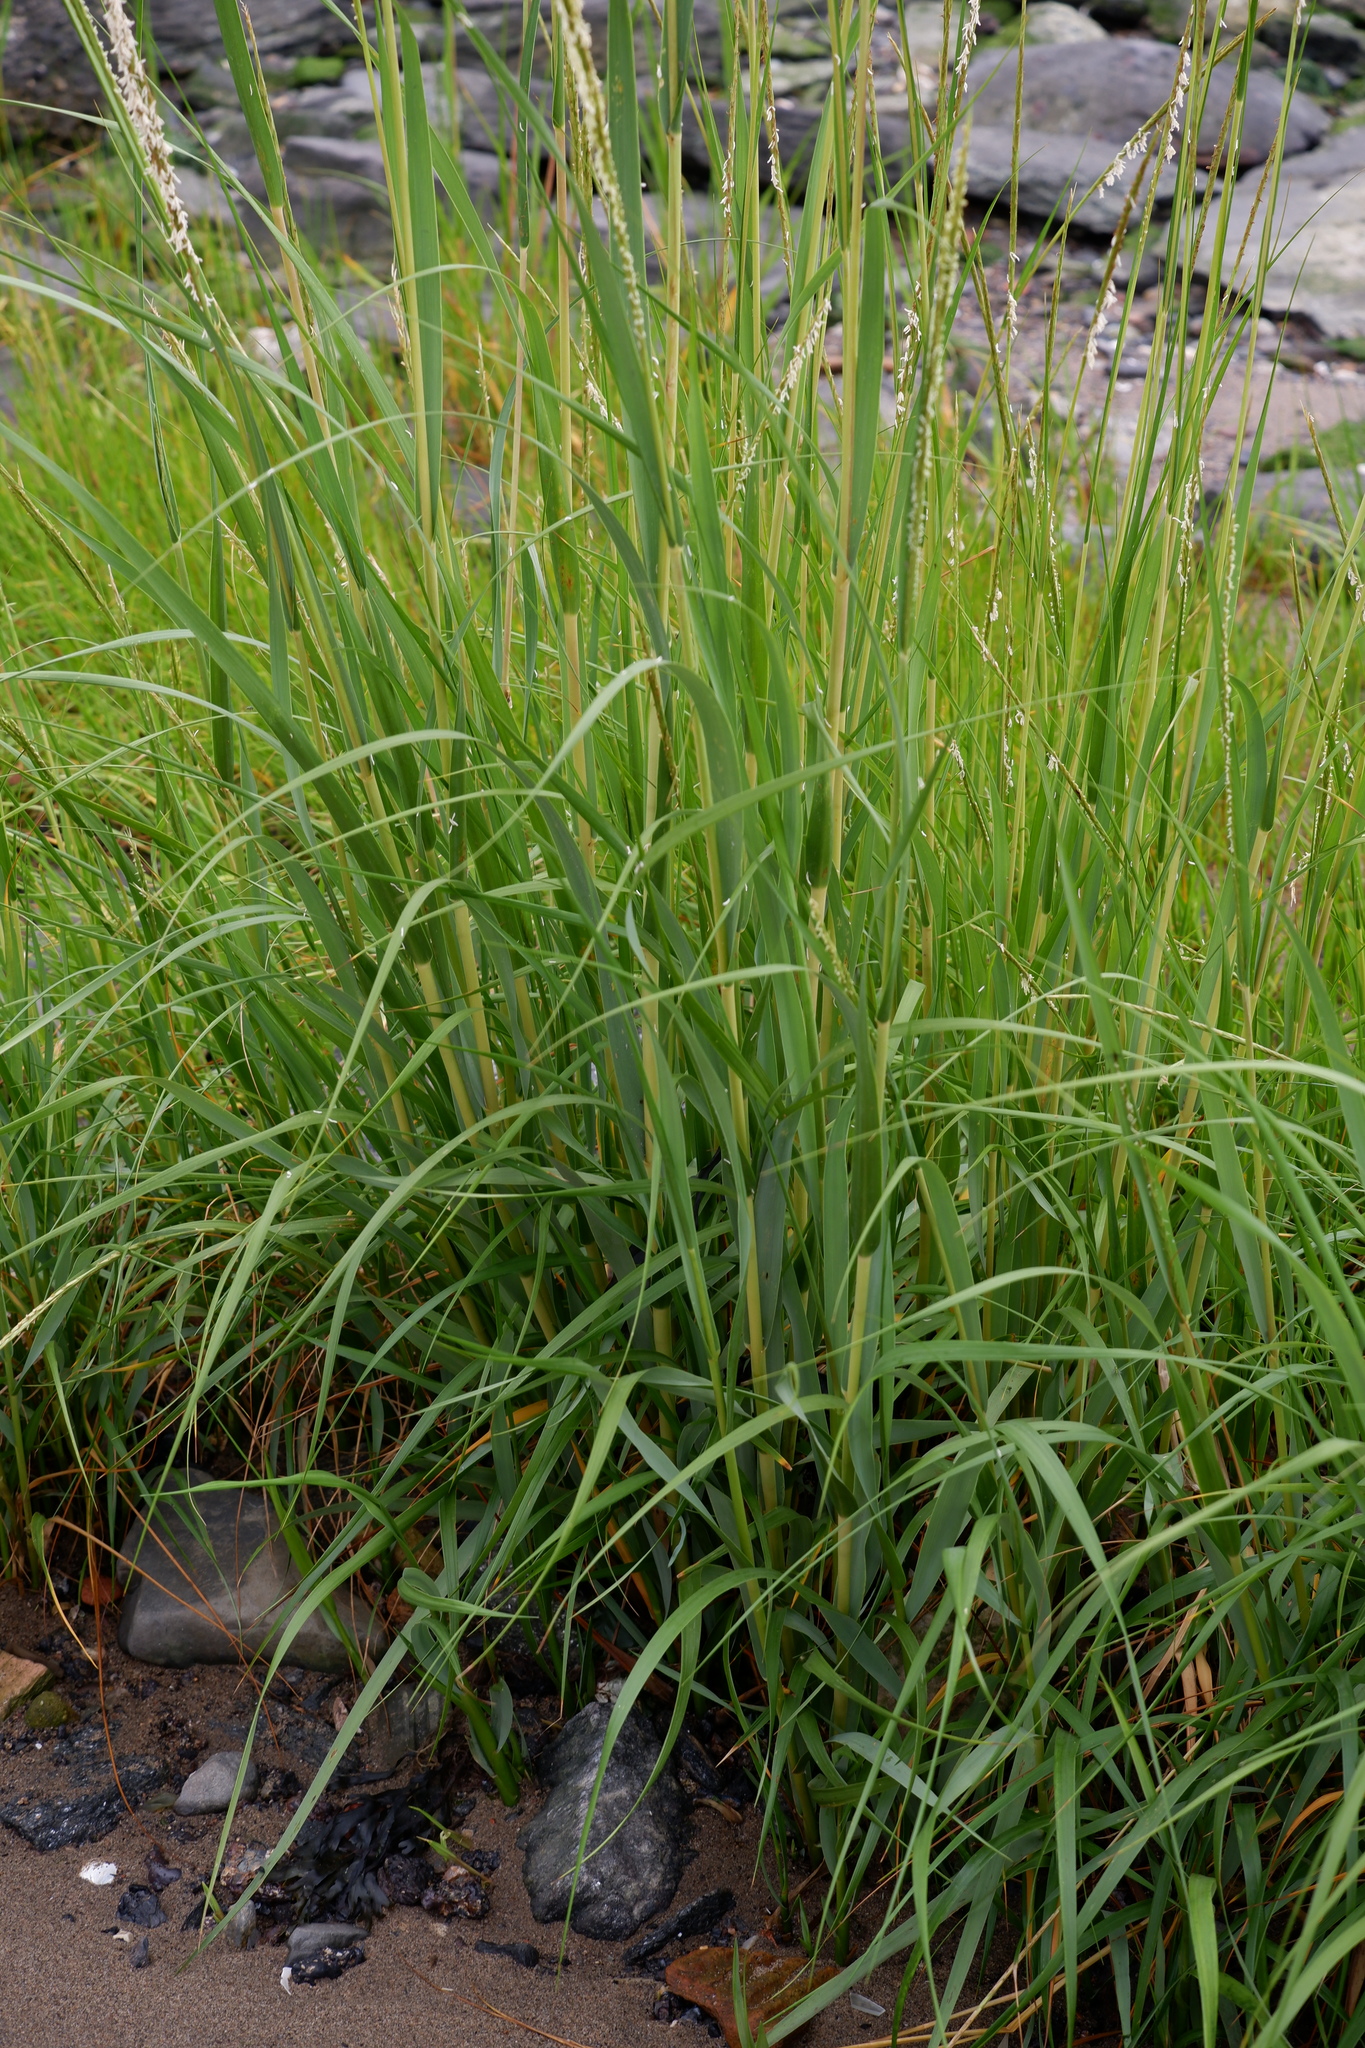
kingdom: Plantae
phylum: Tracheophyta
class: Liliopsida
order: Poales
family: Poaceae
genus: Sporobolus
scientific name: Sporobolus alterniflorus
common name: Atlantic cordgrass
